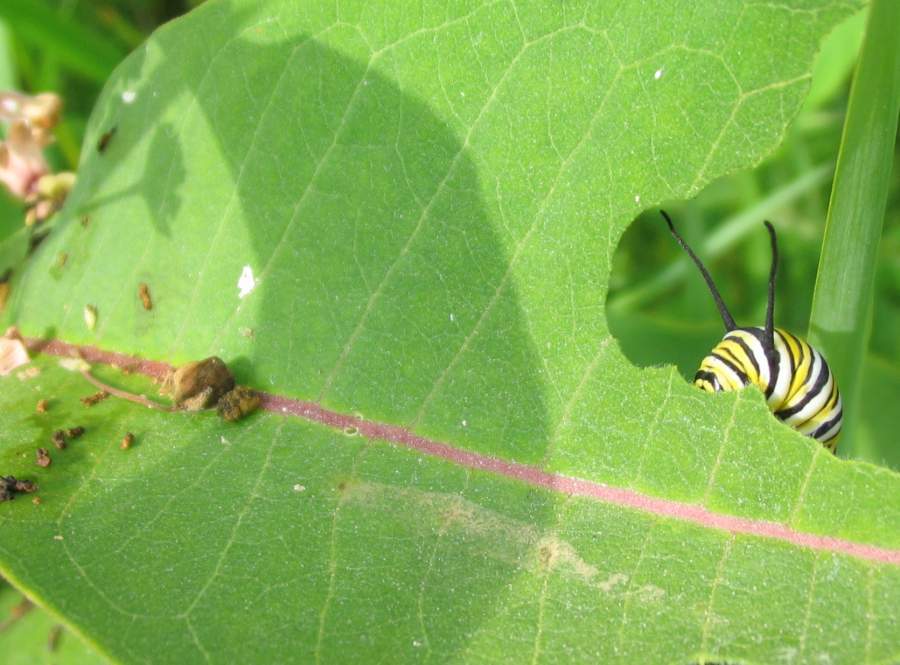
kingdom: Animalia
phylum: Arthropoda
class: Insecta
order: Lepidoptera
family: Nymphalidae
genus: Danaus
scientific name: Danaus plexippus
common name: Monarch
